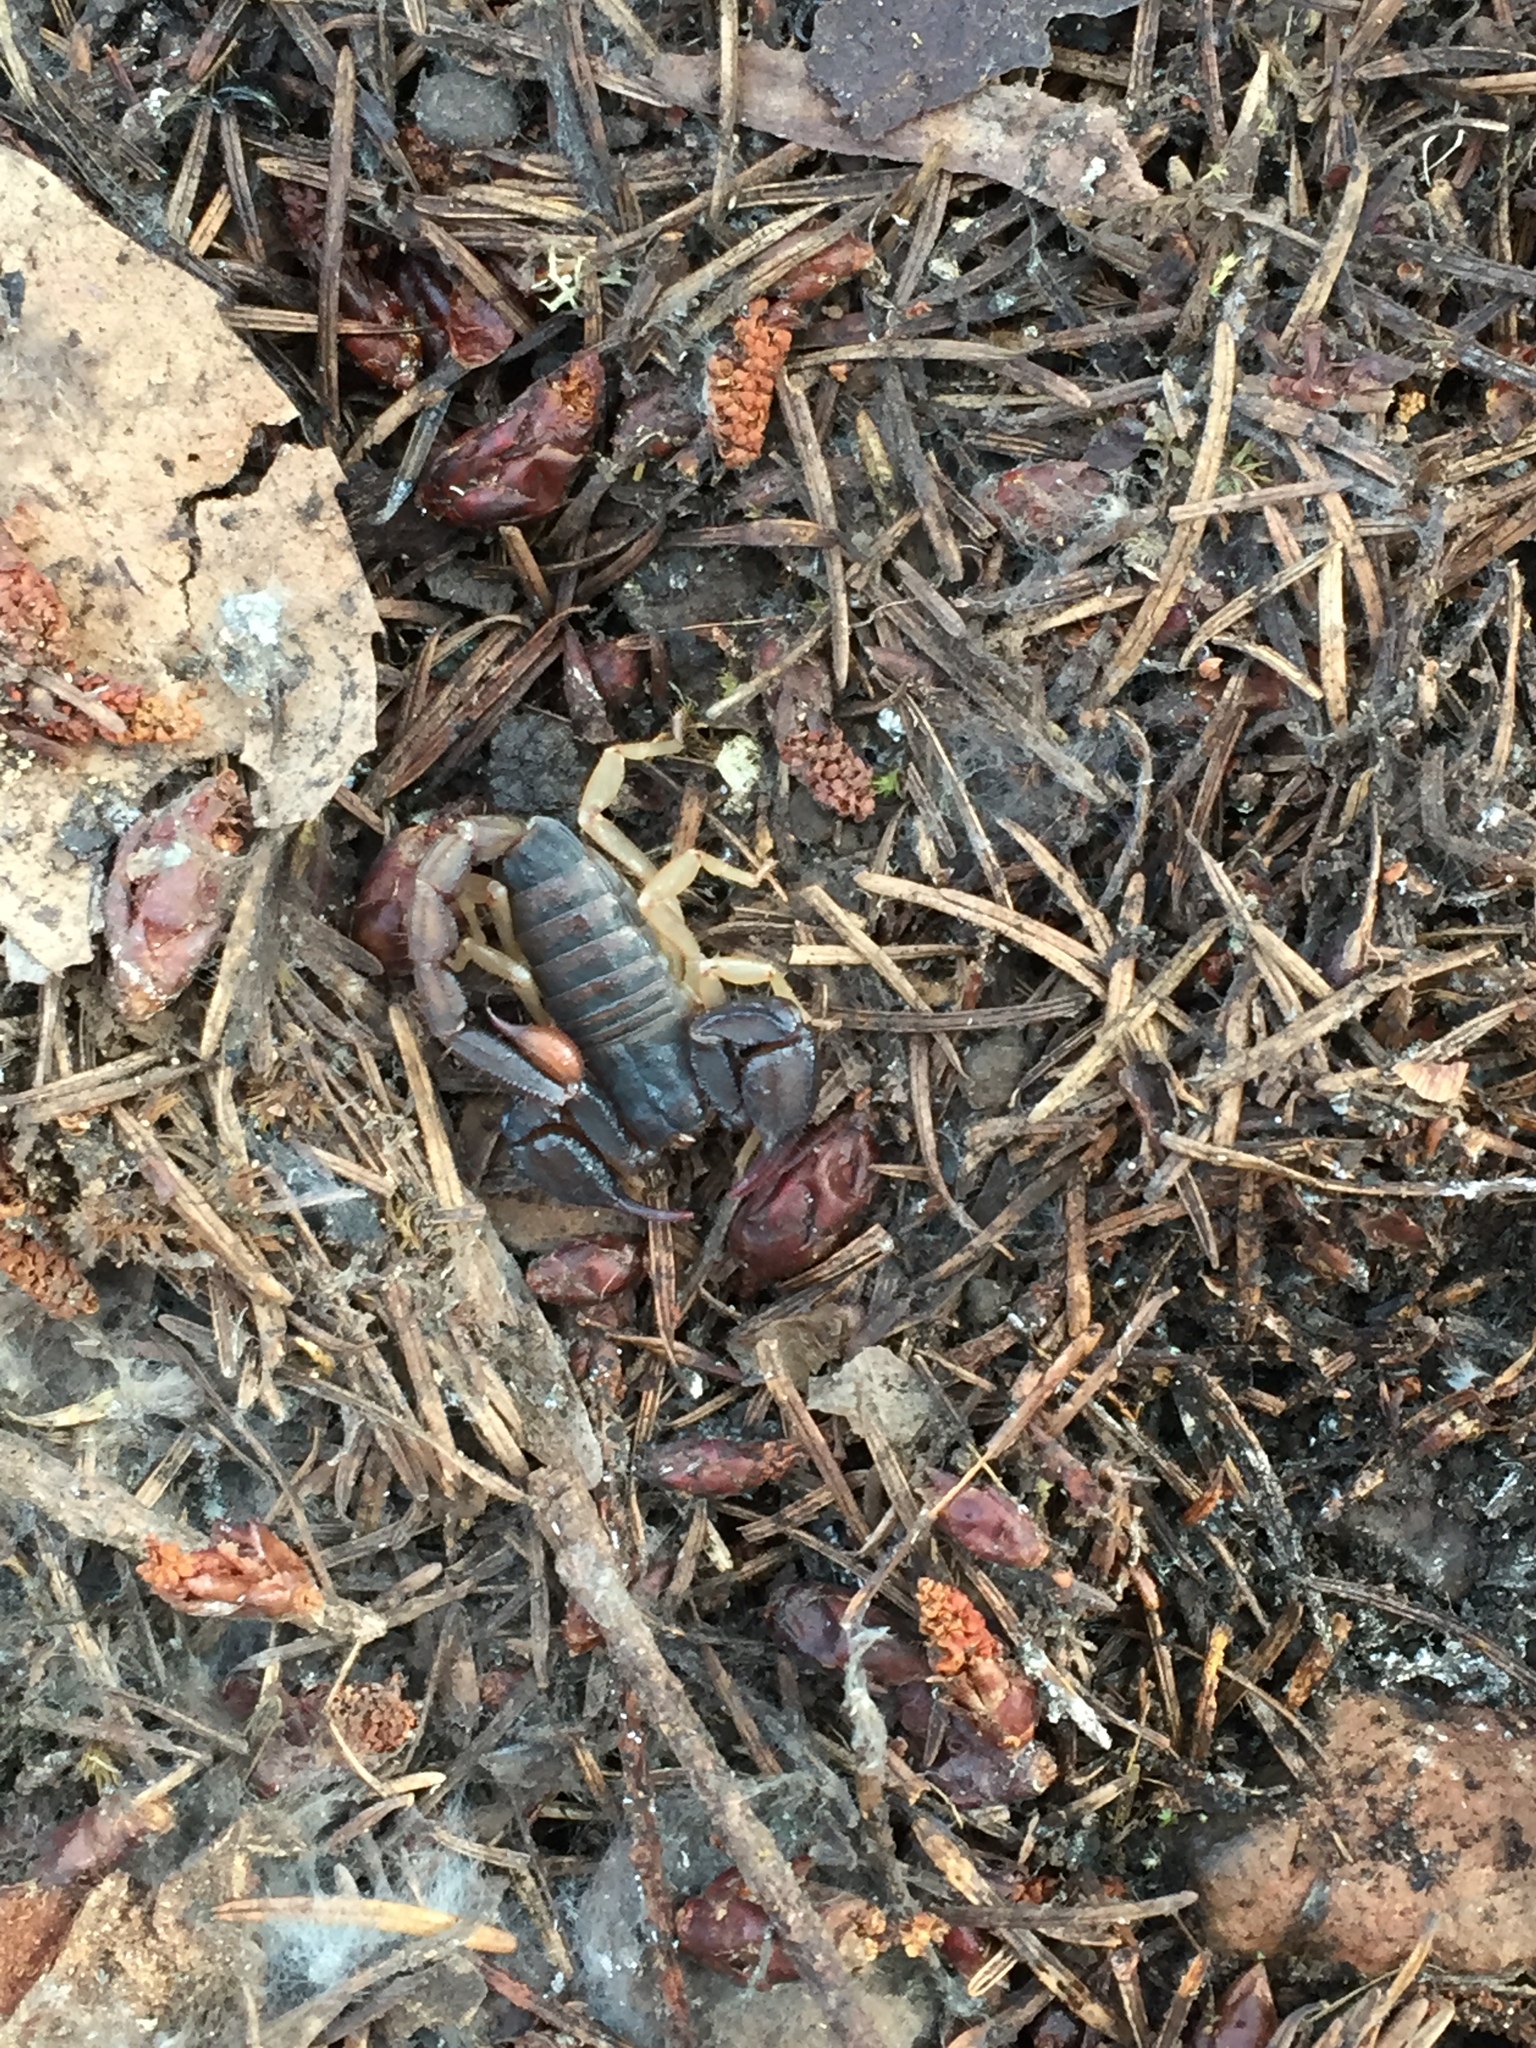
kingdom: Animalia
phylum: Arthropoda
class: Arachnida
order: Scorpiones
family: Chactidae
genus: Uroctonus
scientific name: Uroctonus mordax
